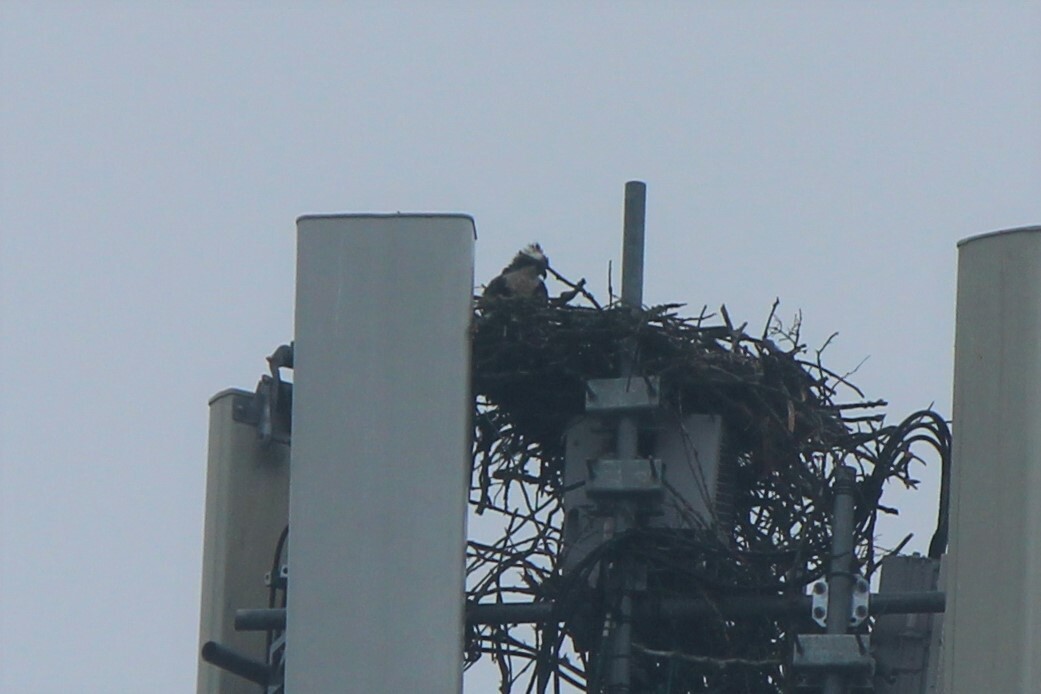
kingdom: Animalia
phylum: Chordata
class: Aves
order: Accipitriformes
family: Pandionidae
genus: Pandion
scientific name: Pandion haliaetus
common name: Osprey
